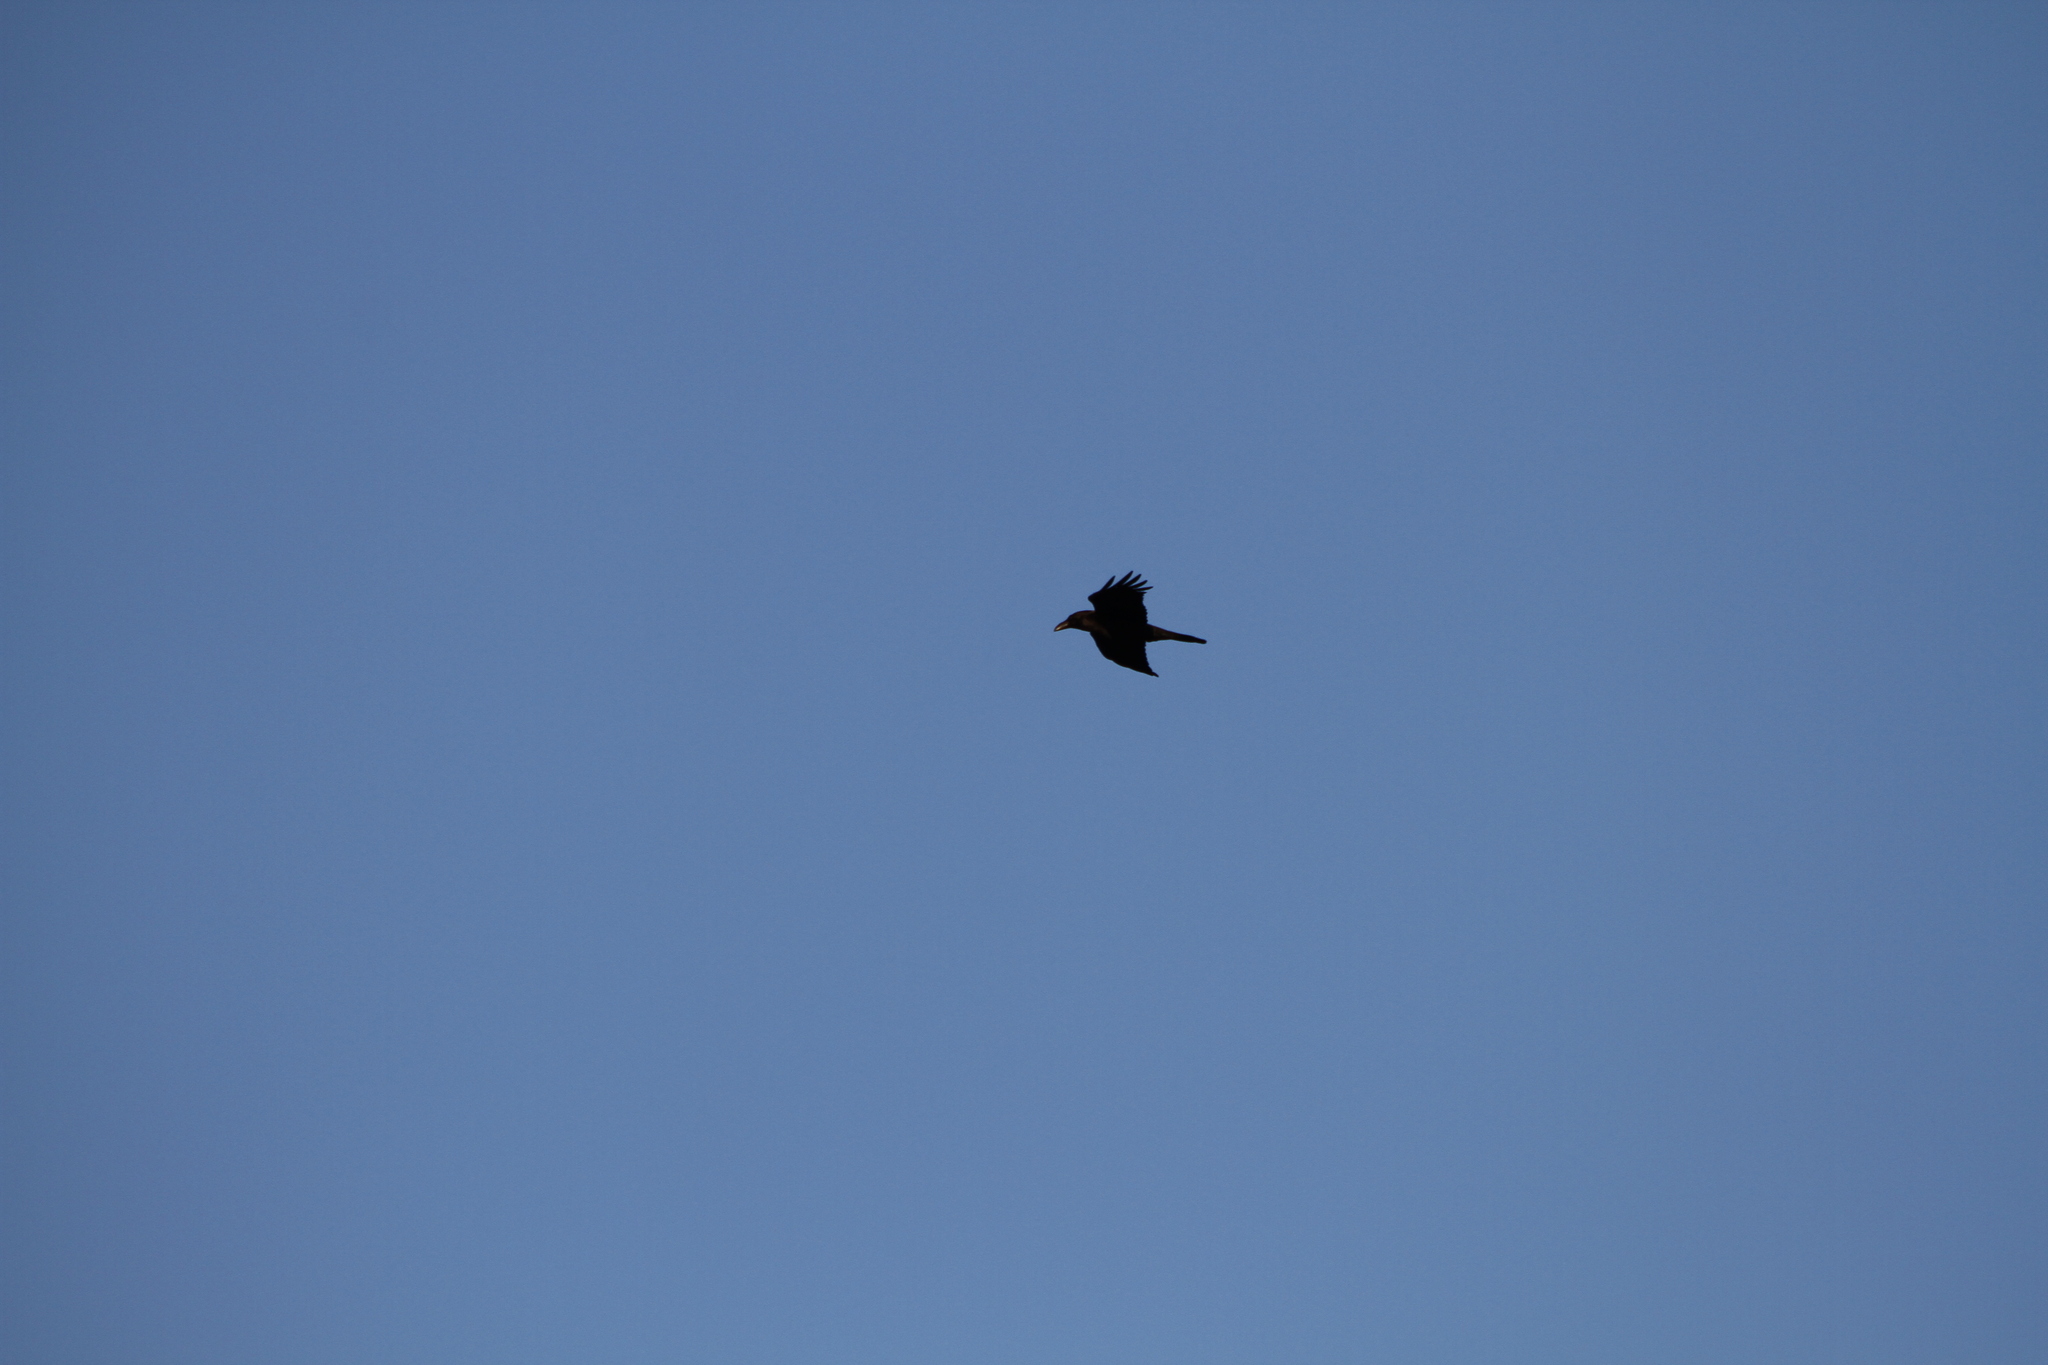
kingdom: Animalia
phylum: Chordata
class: Aves
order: Passeriformes
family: Corvidae
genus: Corvus
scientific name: Corvus corone
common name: Carrion crow
